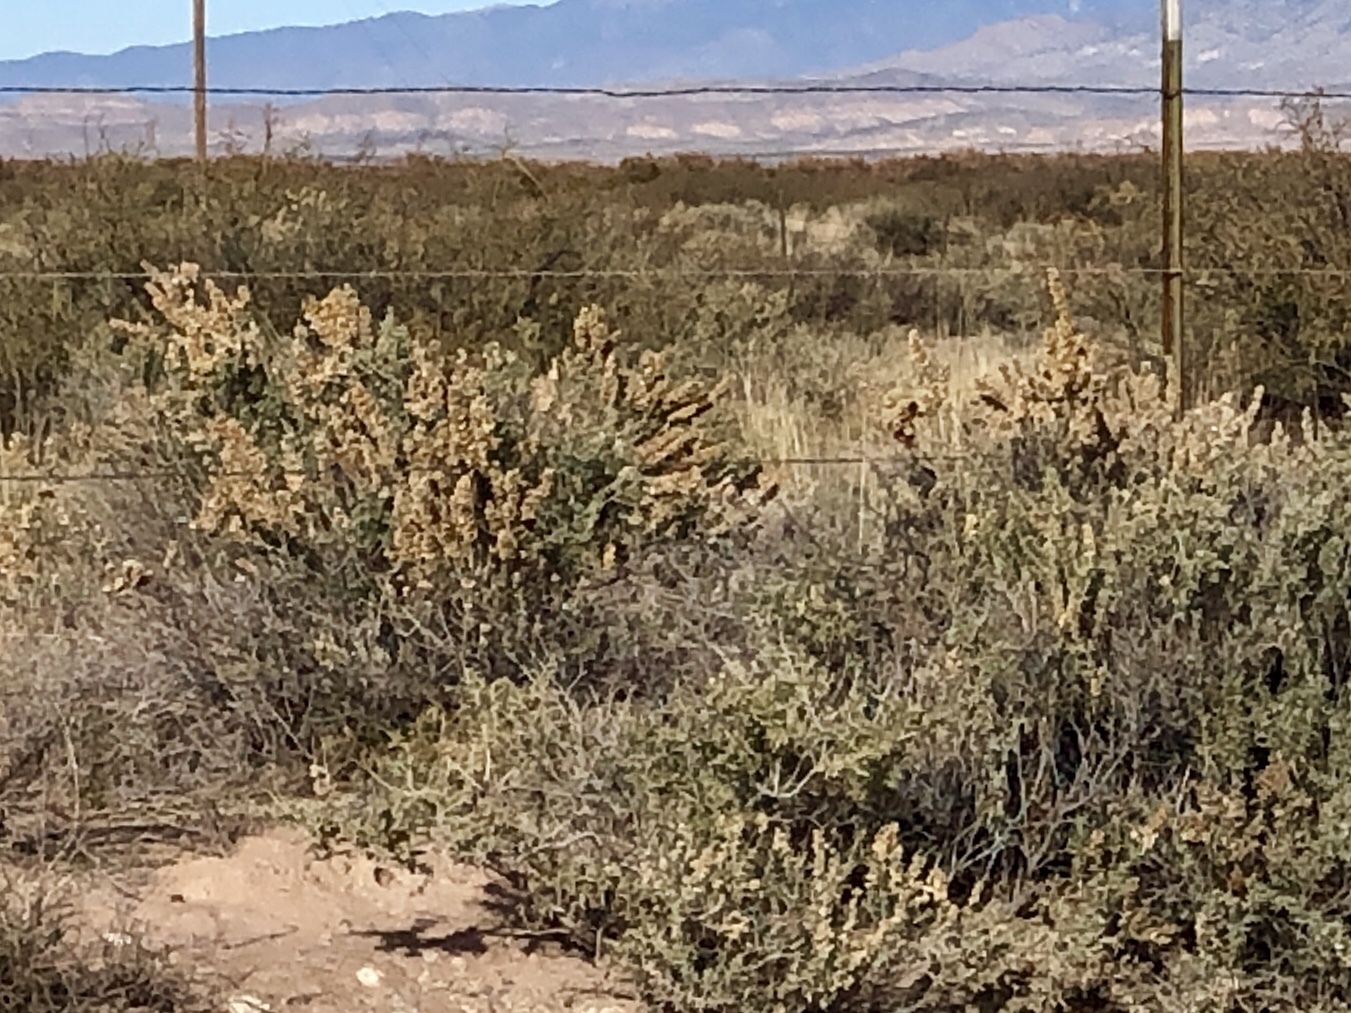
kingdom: Plantae
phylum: Tracheophyta
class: Magnoliopsida
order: Caryophyllales
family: Amaranthaceae
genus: Atriplex
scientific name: Atriplex canescens
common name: Four-wing saltbush
